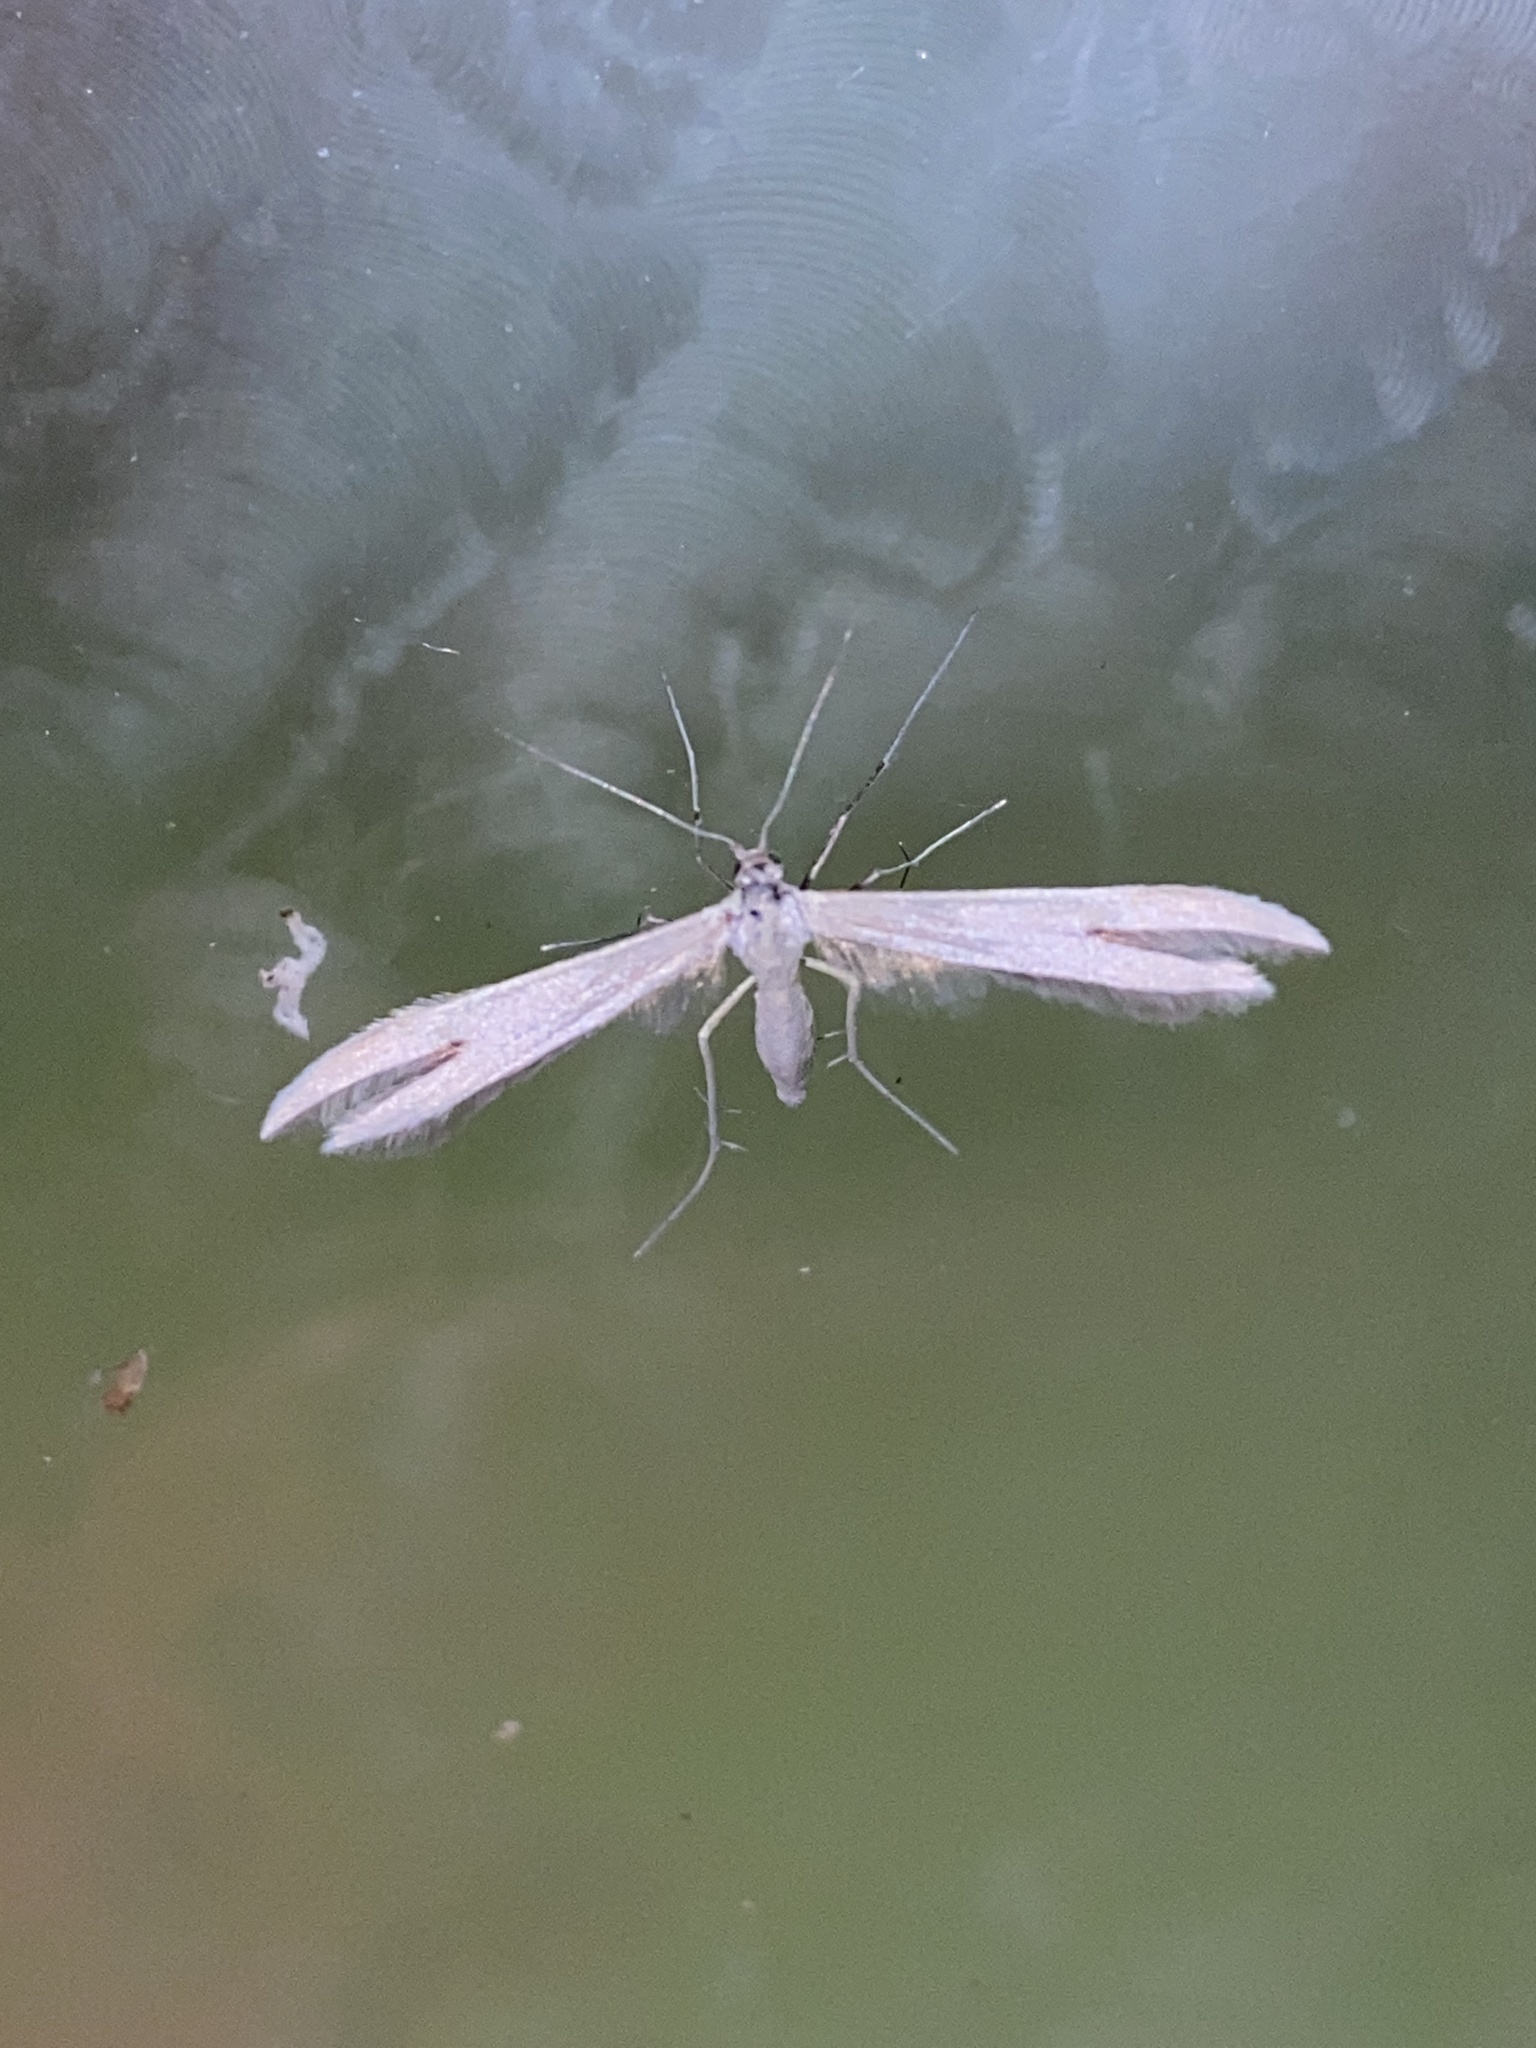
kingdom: Animalia
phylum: Arthropoda
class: Insecta
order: Lepidoptera
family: Pterophoridae
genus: Pterophorus
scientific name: Pterophorus pentadactyla
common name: White plume moth
